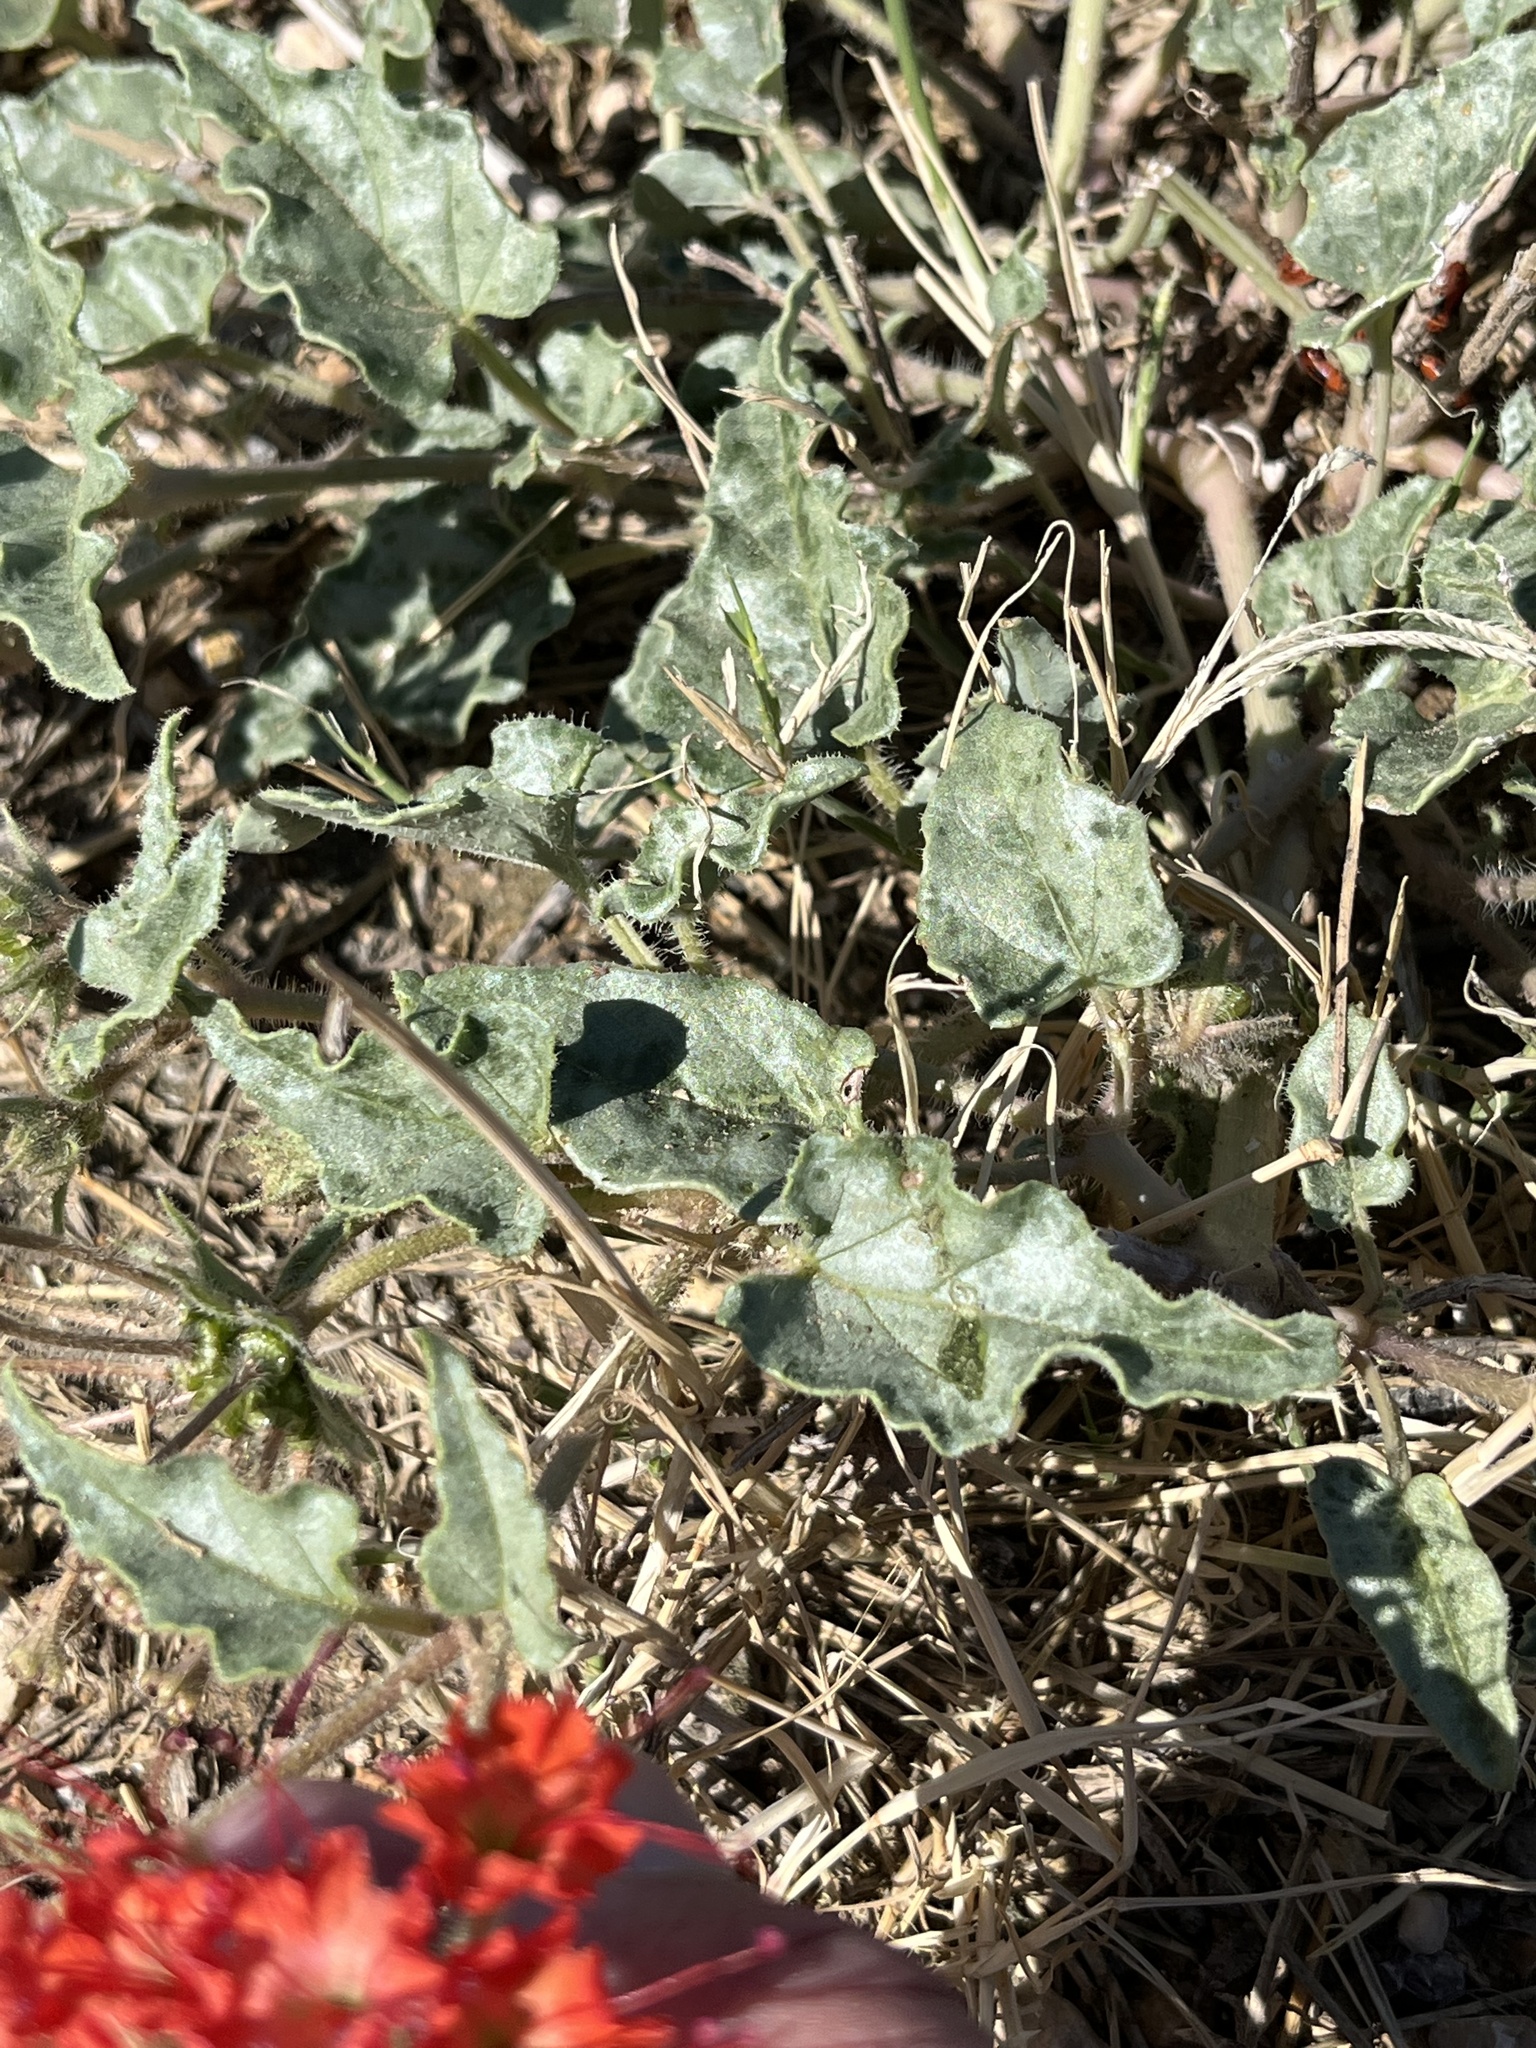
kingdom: Plantae
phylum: Tracheophyta
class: Magnoliopsida
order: Caryophyllales
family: Nyctaginaceae
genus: Nyctaginia
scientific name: Nyctaginia capitata
